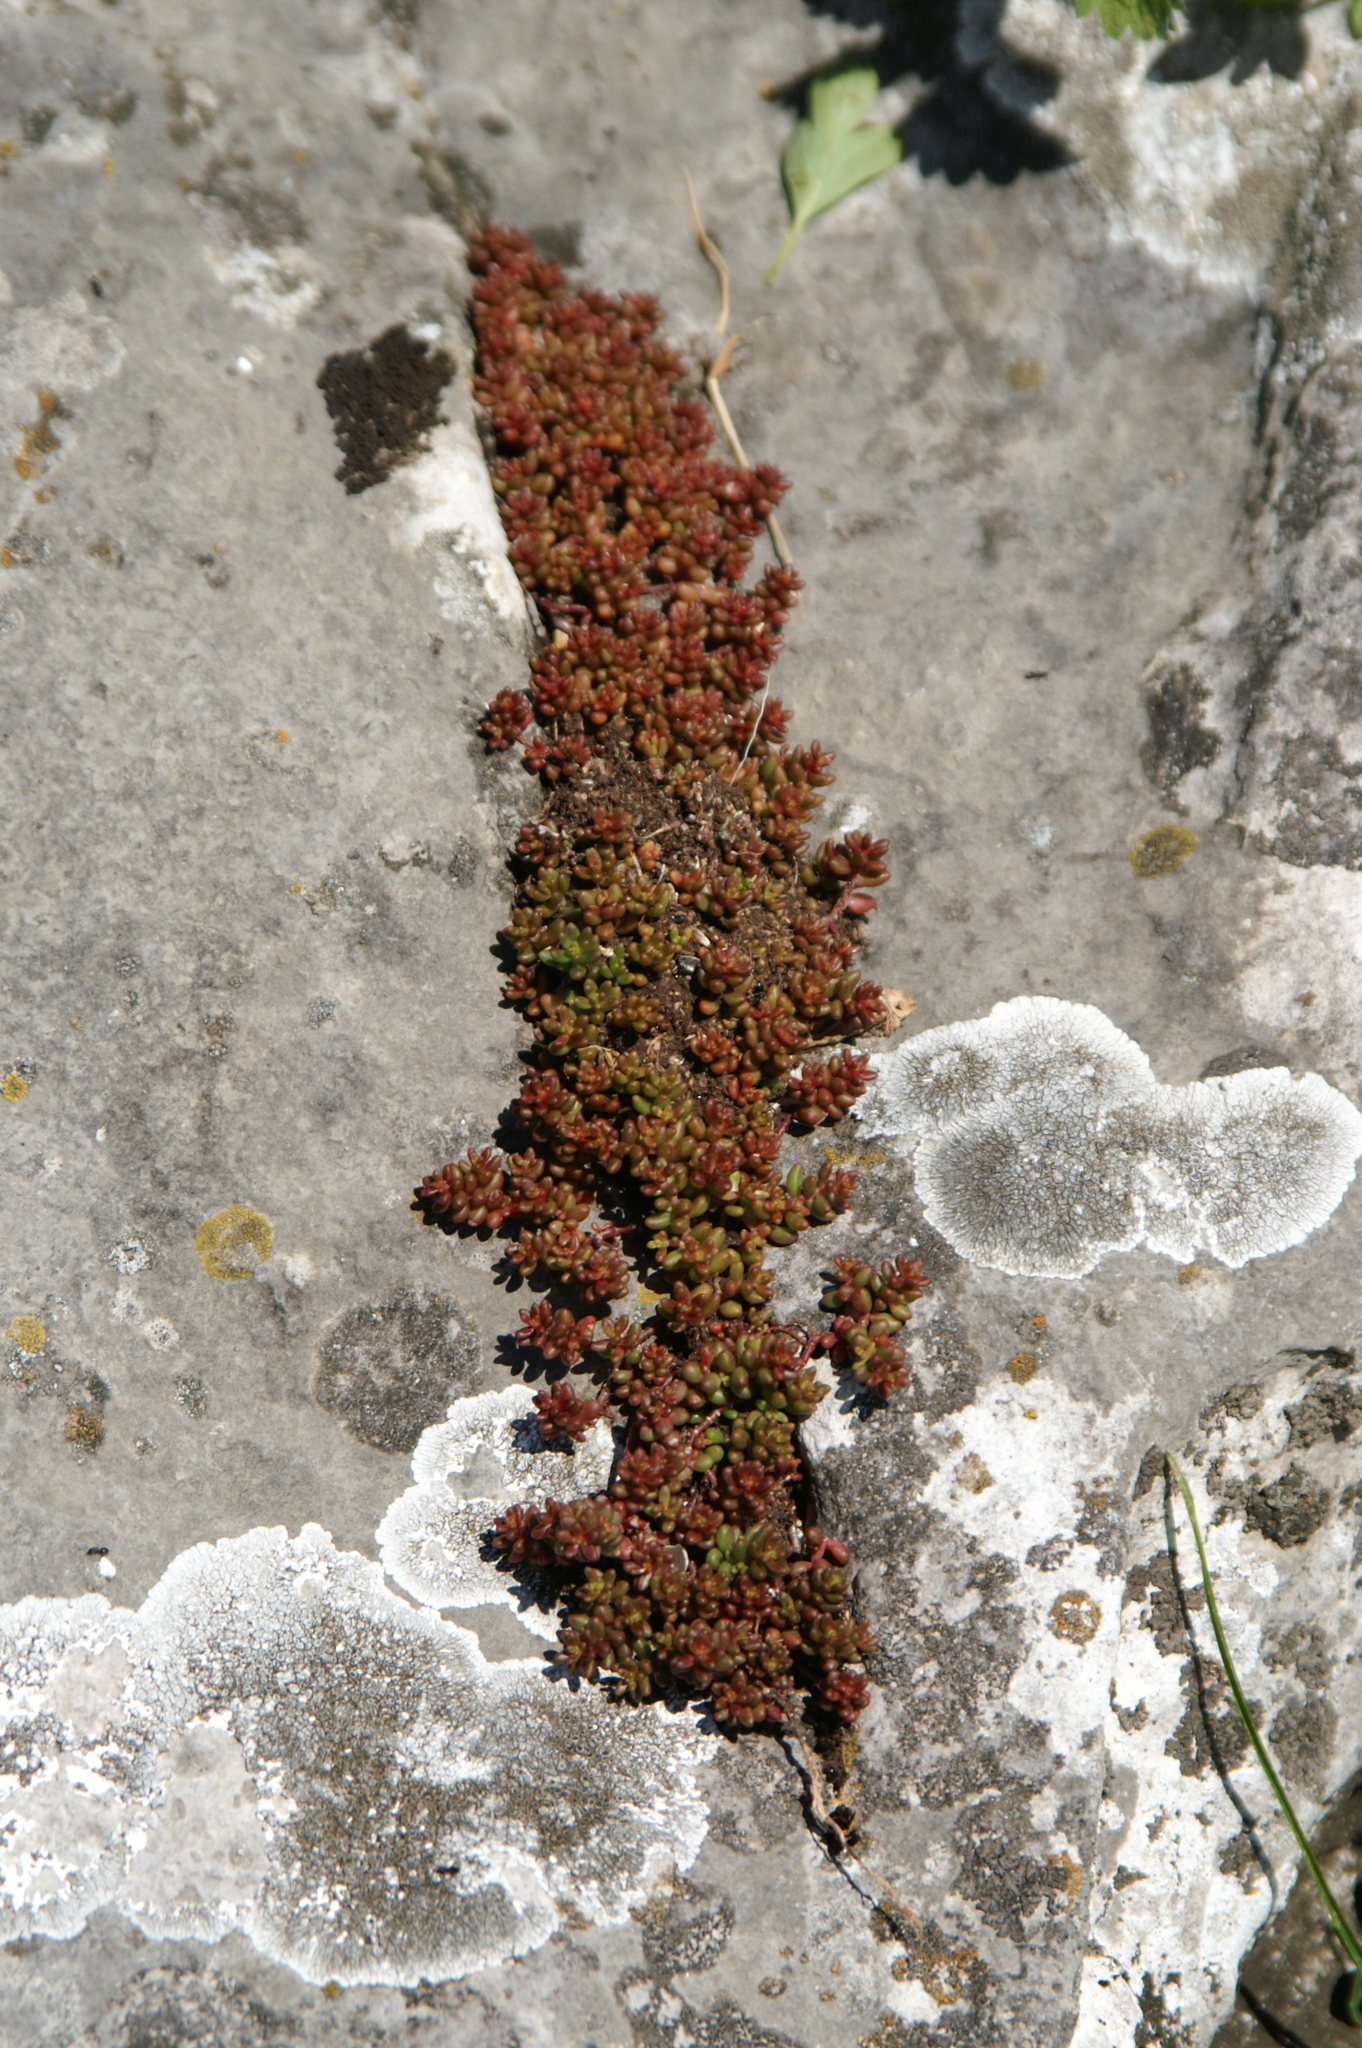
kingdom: Plantae
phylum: Tracheophyta
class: Magnoliopsida
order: Saxifragales
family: Crassulaceae
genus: Sedum
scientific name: Sedum album
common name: White stonecrop
